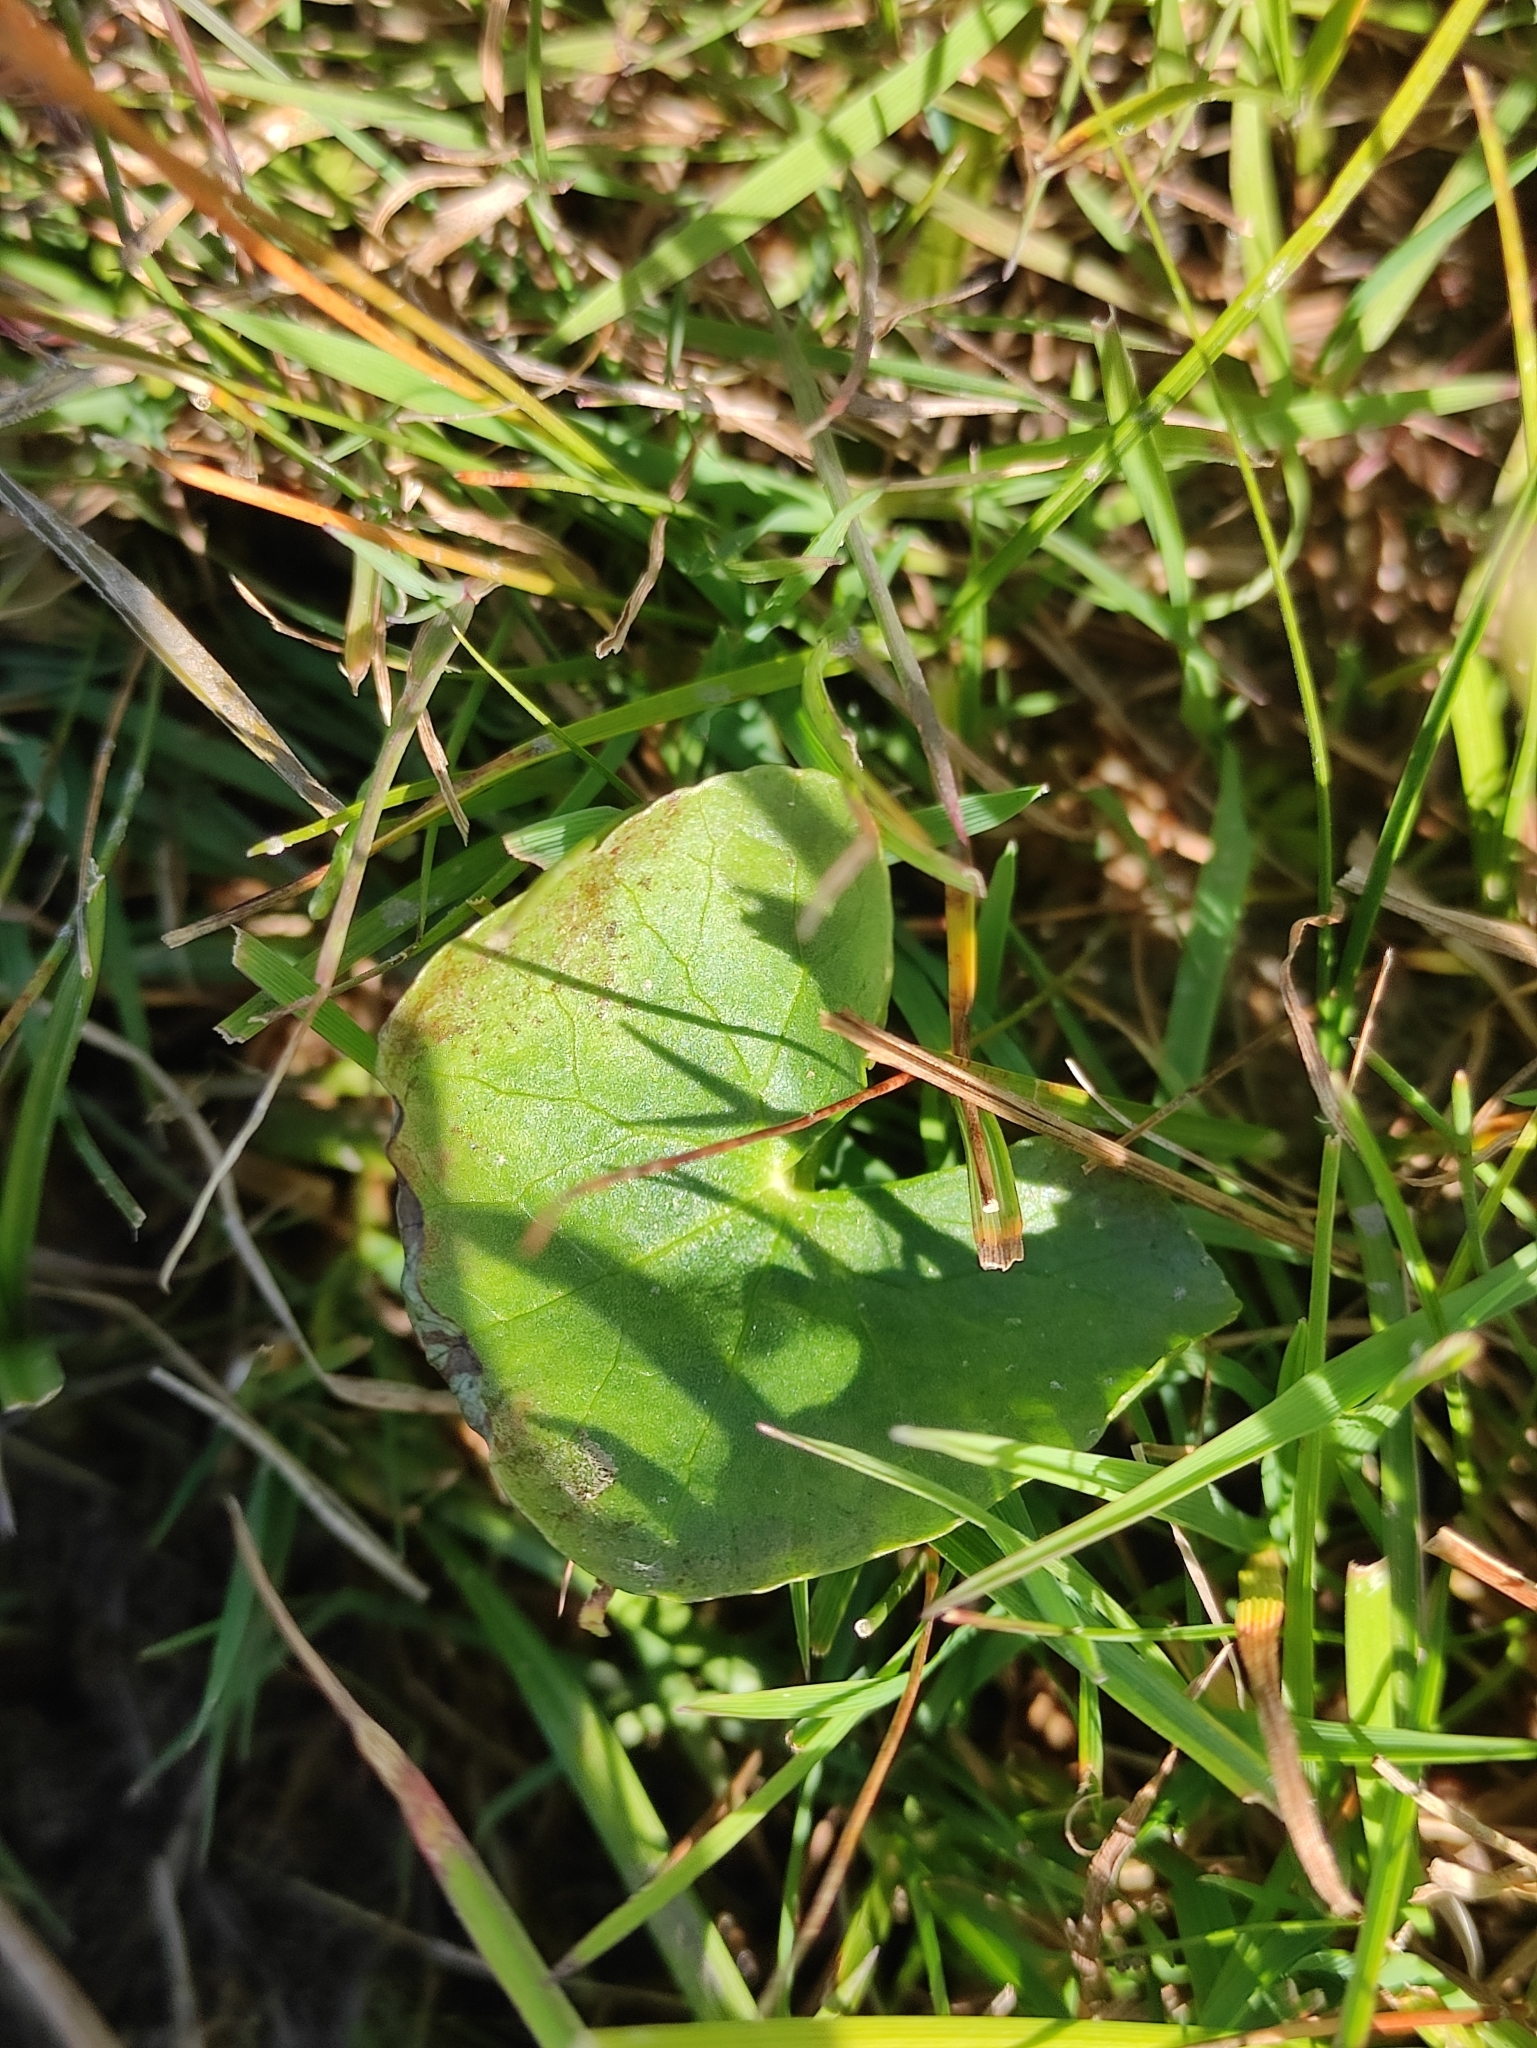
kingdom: Plantae
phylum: Tracheophyta
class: Magnoliopsida
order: Ranunculales
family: Ranunculaceae
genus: Caltha
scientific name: Caltha palustris
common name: Marsh marigold
